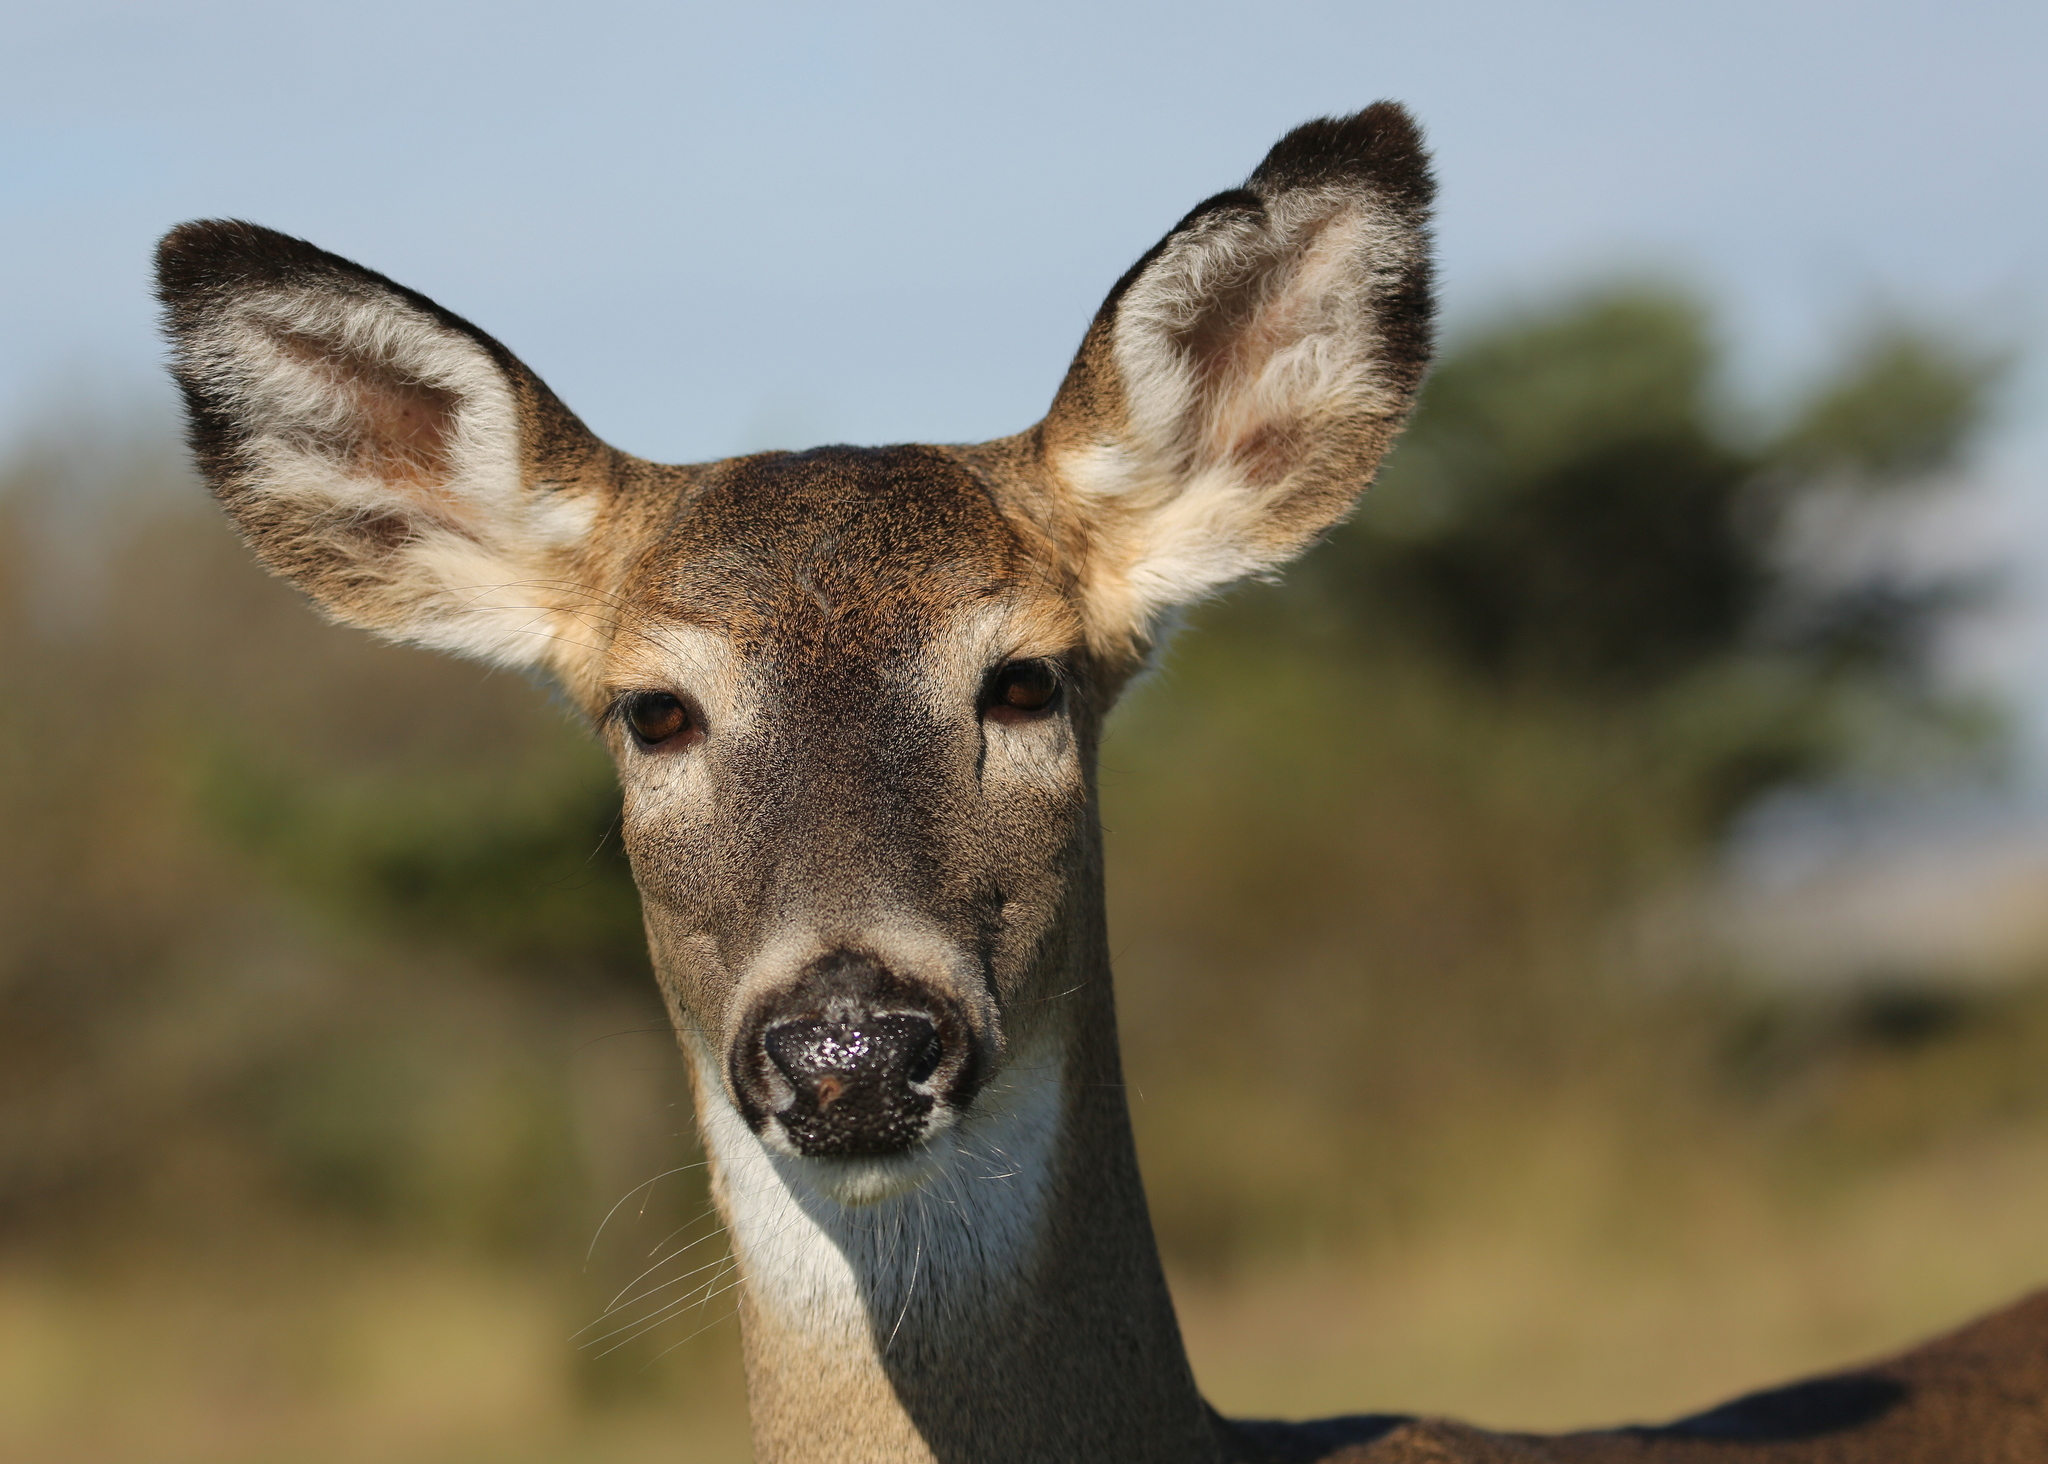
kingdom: Animalia
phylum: Chordata
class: Mammalia
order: Artiodactyla
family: Cervidae
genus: Odocoileus
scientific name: Odocoileus virginianus
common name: White-tailed deer
